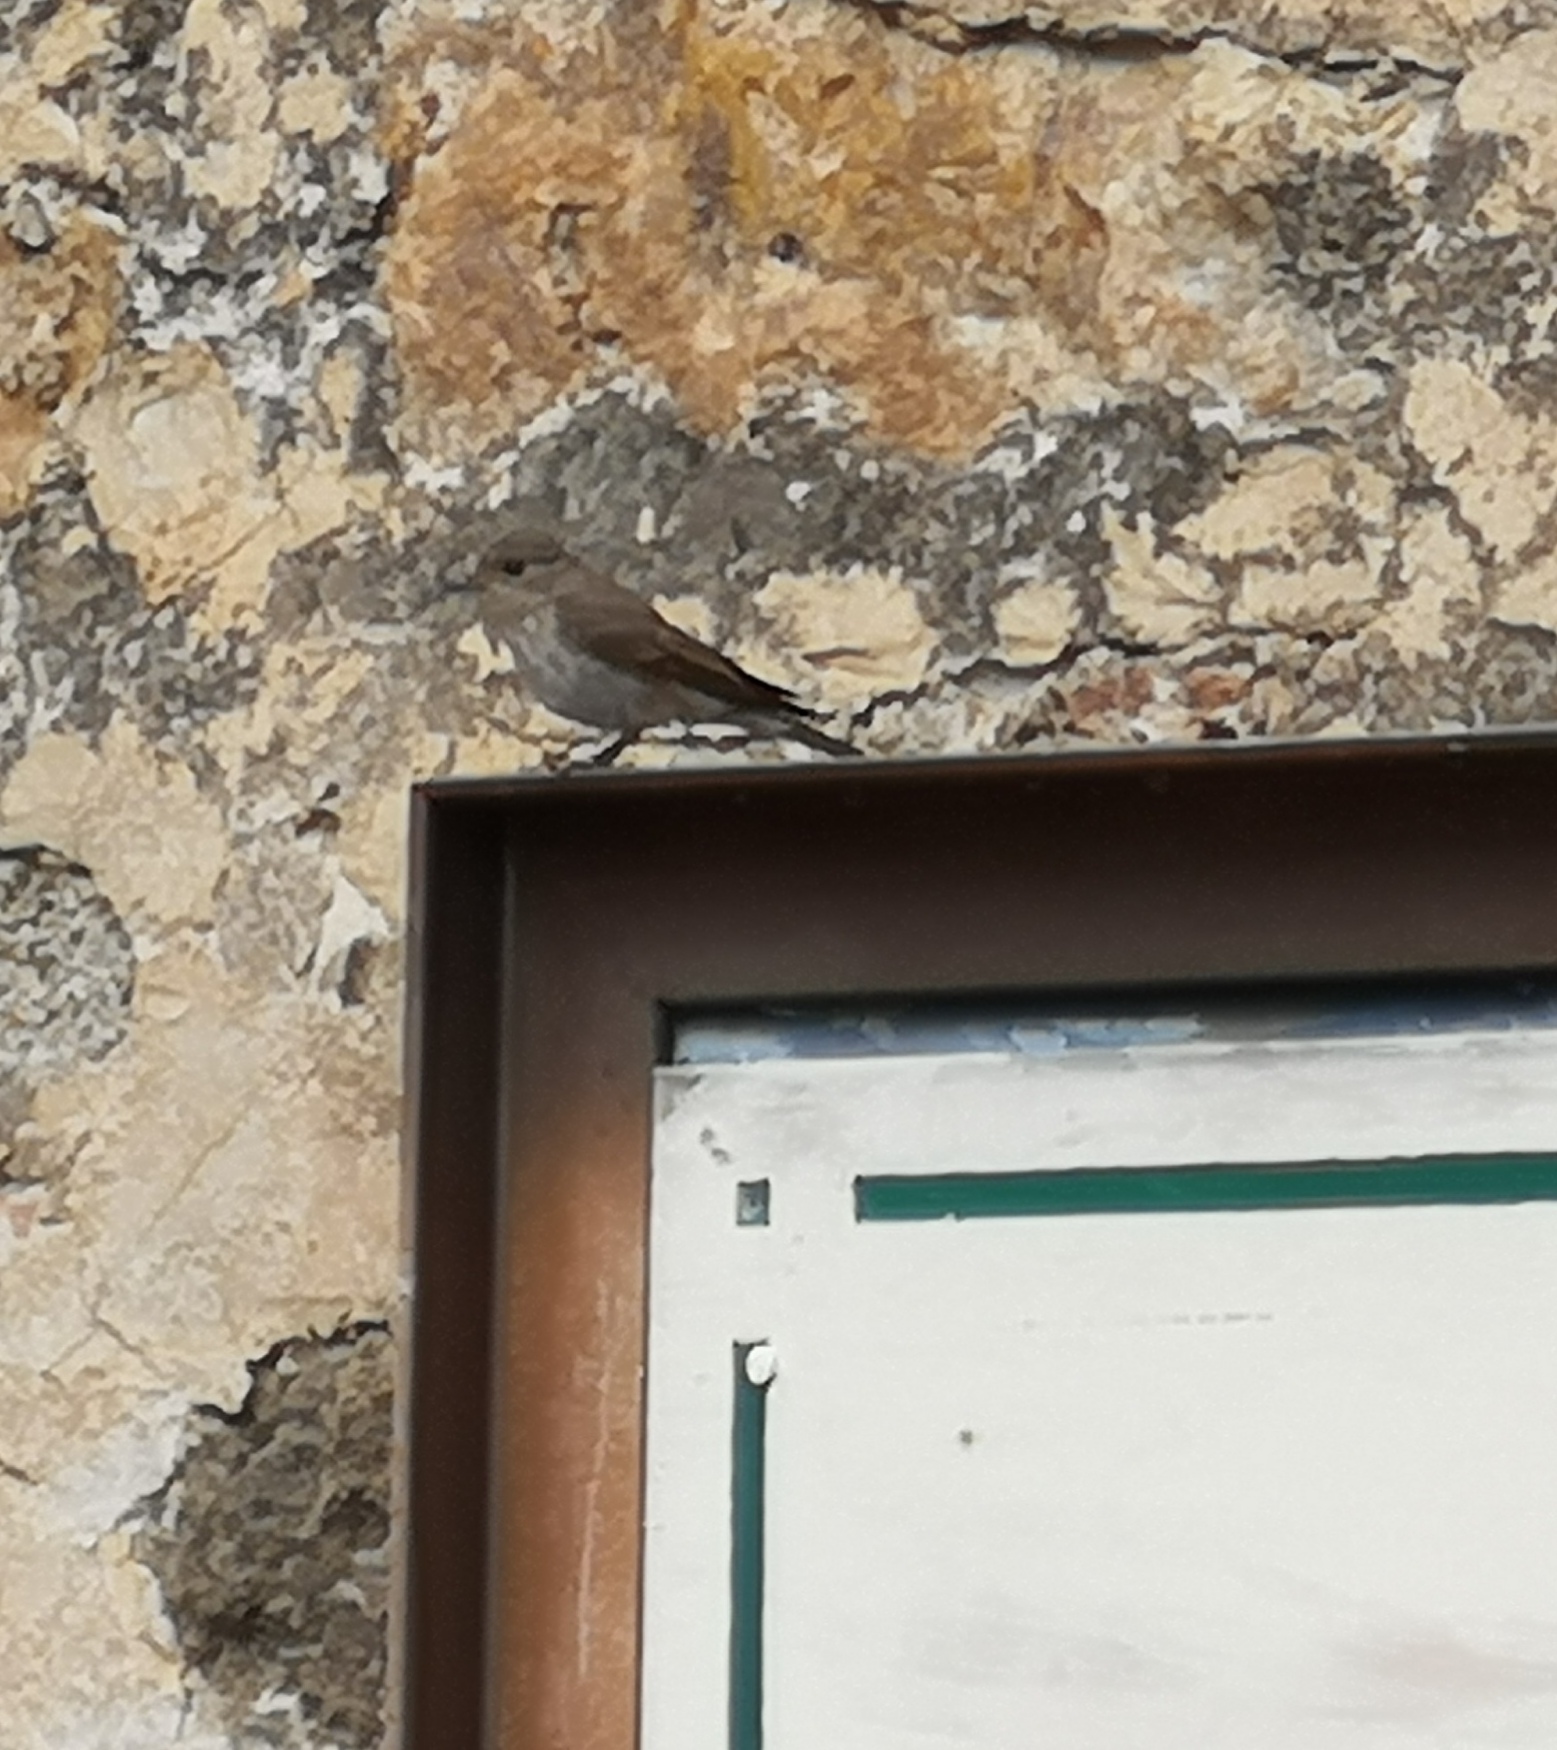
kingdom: Animalia
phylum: Chordata
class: Aves
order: Passeriformes
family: Muscicapidae
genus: Muscicapa
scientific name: Muscicapa striata
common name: Spotted flycatcher
